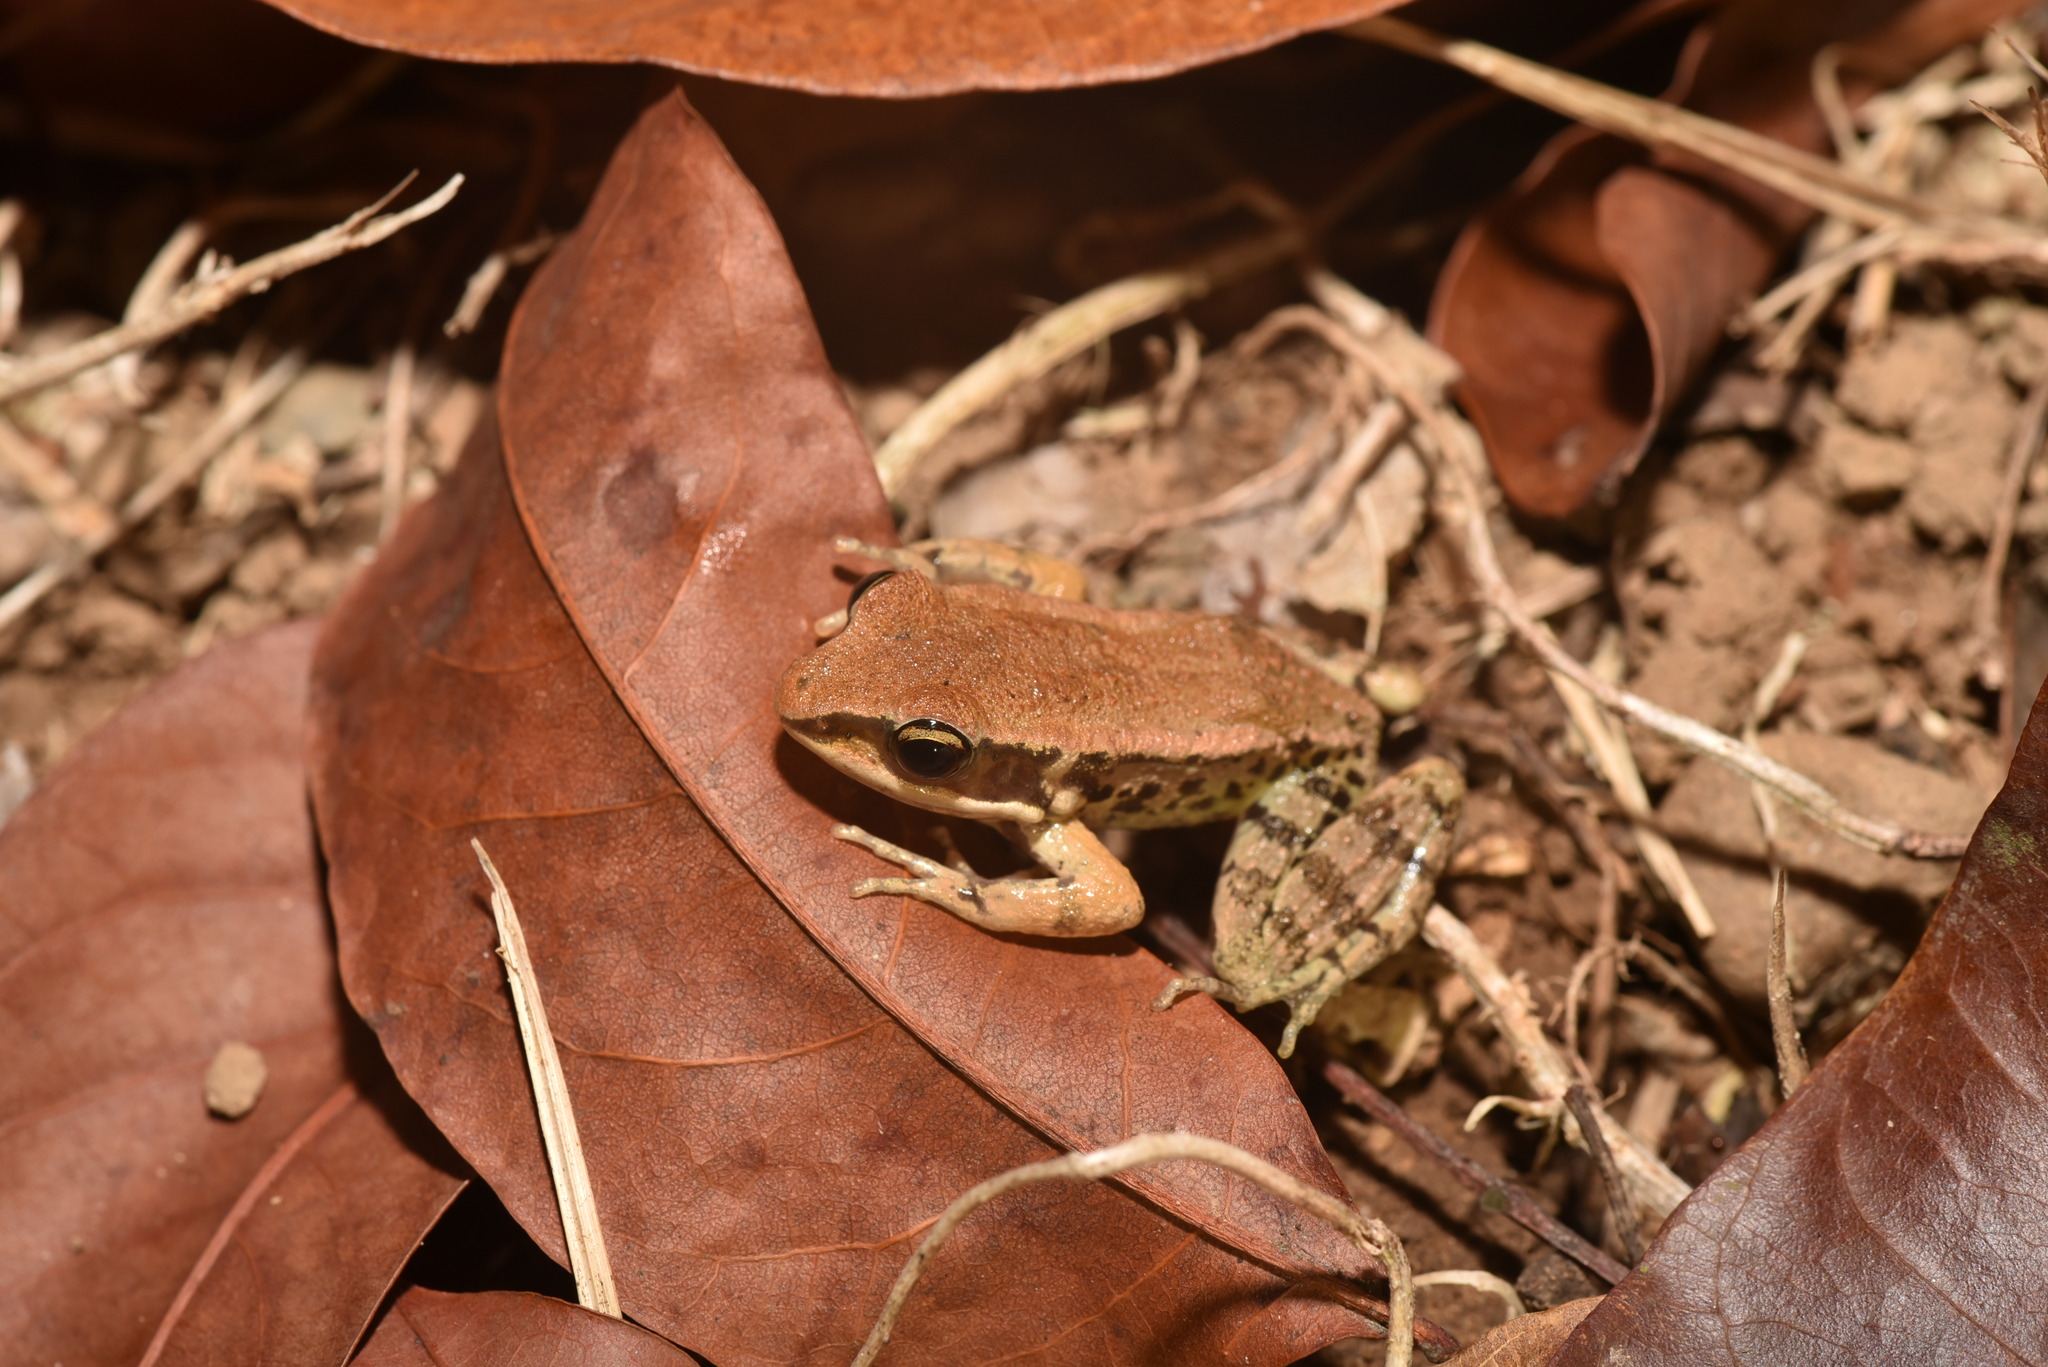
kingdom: Animalia
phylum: Chordata
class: Amphibia
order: Anura
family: Ranidae
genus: Hylarana
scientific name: Hylarana latouchii
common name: Broad-folded frog
